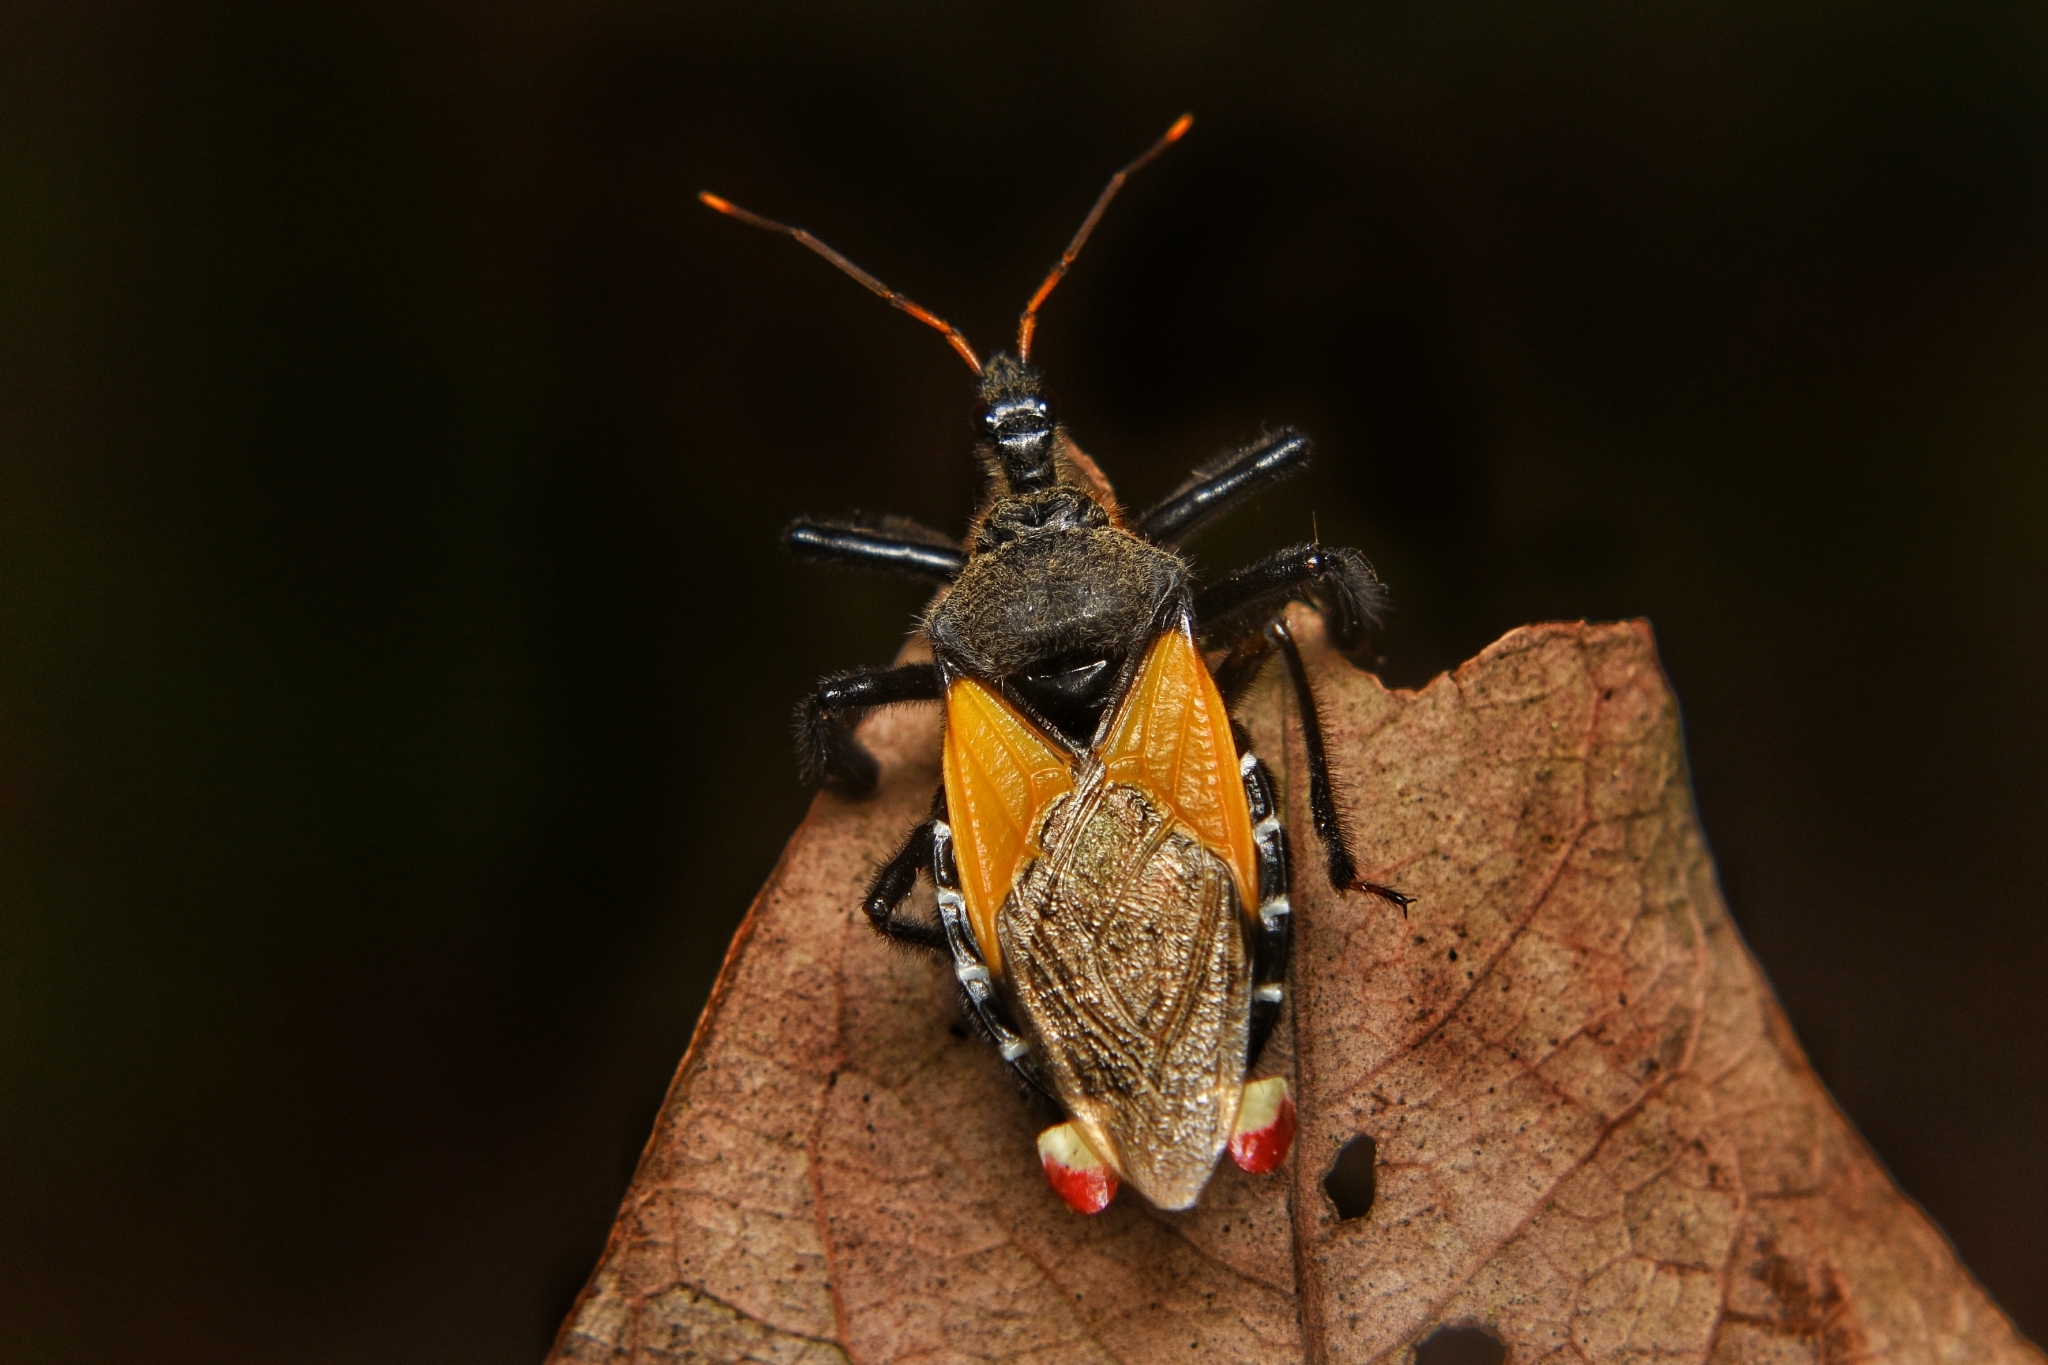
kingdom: Animalia
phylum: Arthropoda
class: Insecta
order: Hemiptera
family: Reduviidae
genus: Apiomerus
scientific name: Apiomerus ochropterus
